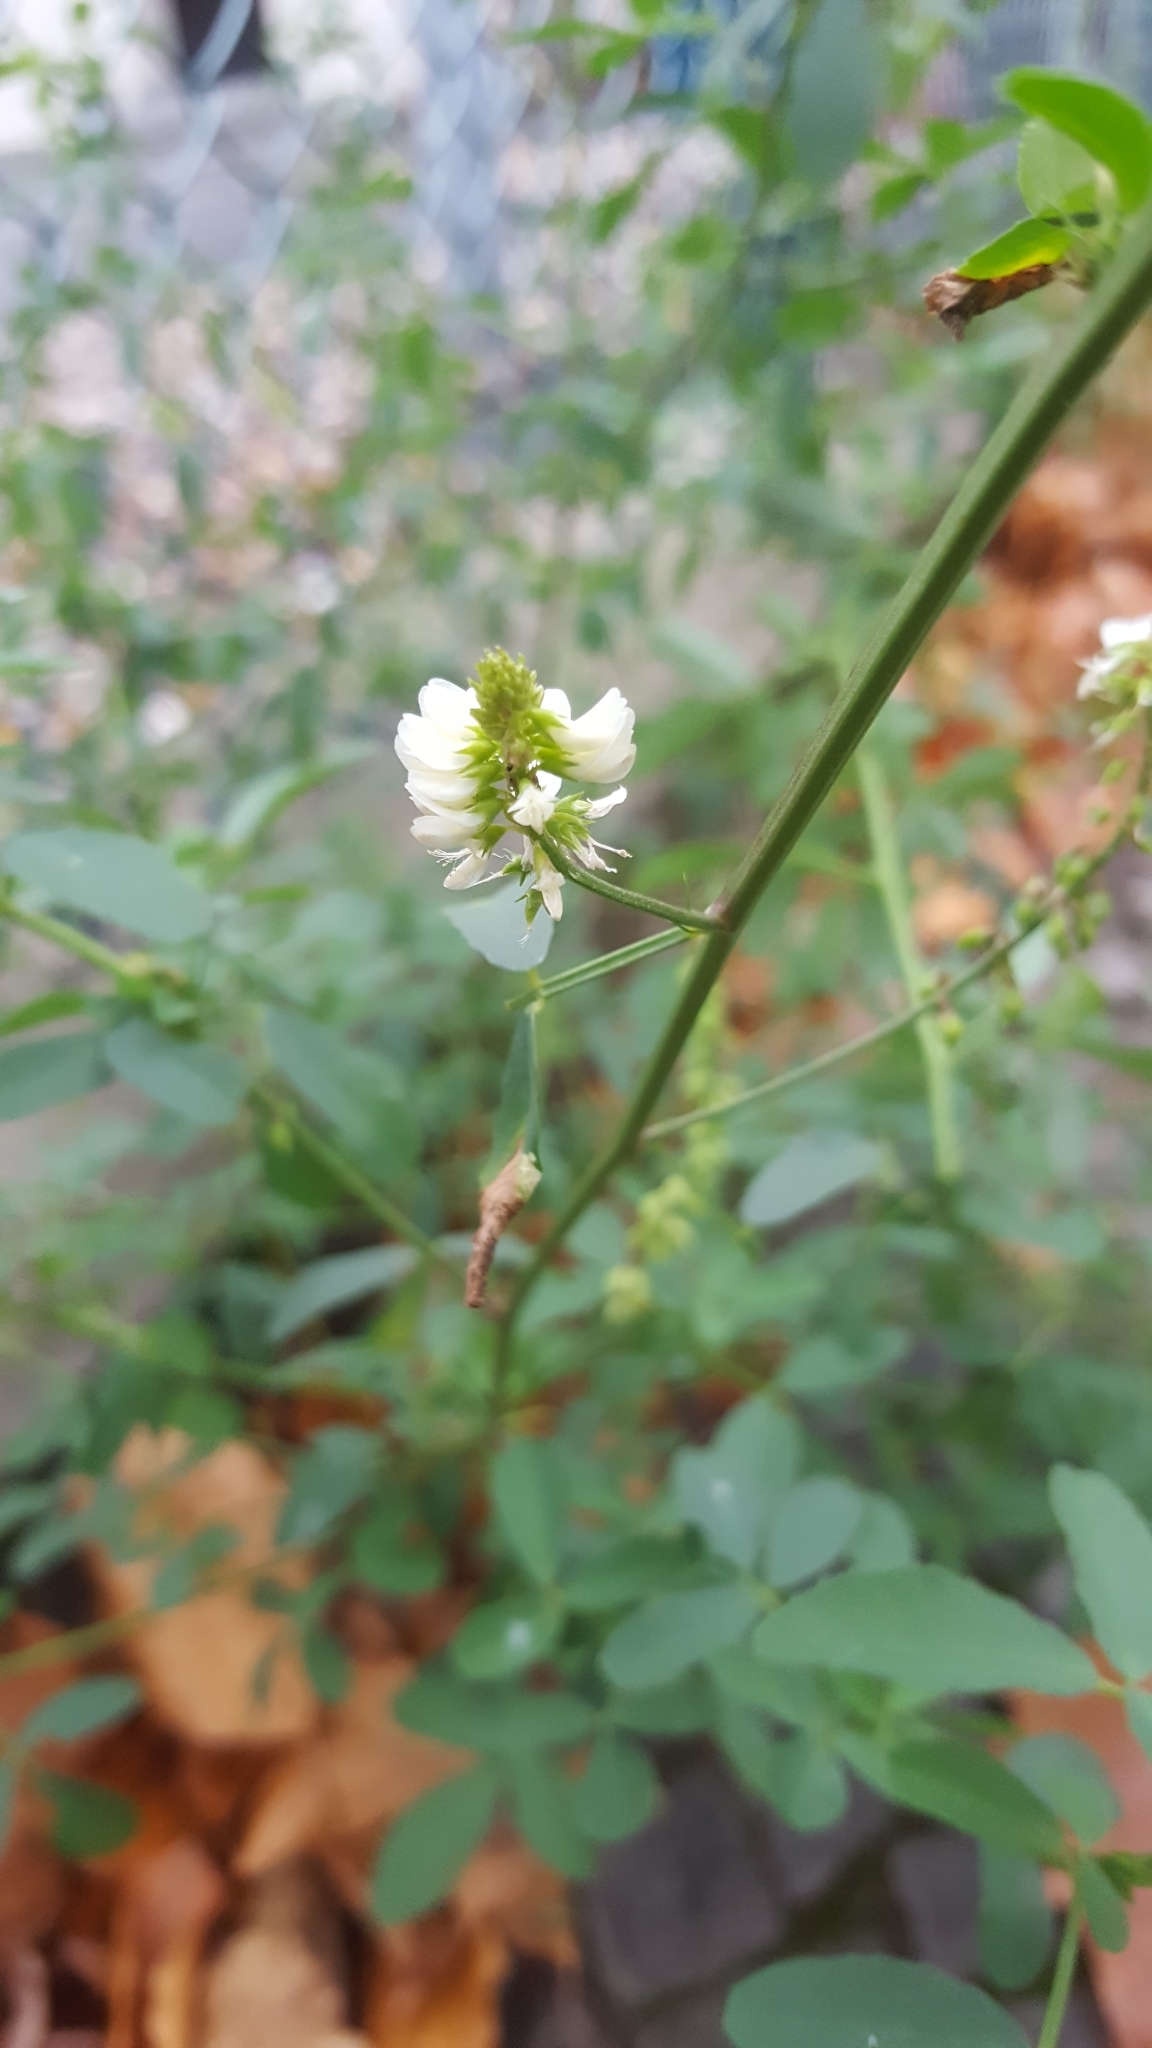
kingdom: Plantae
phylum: Tracheophyta
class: Magnoliopsida
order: Fabales
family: Fabaceae
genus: Melilotus
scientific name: Melilotus albus
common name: White melilot
